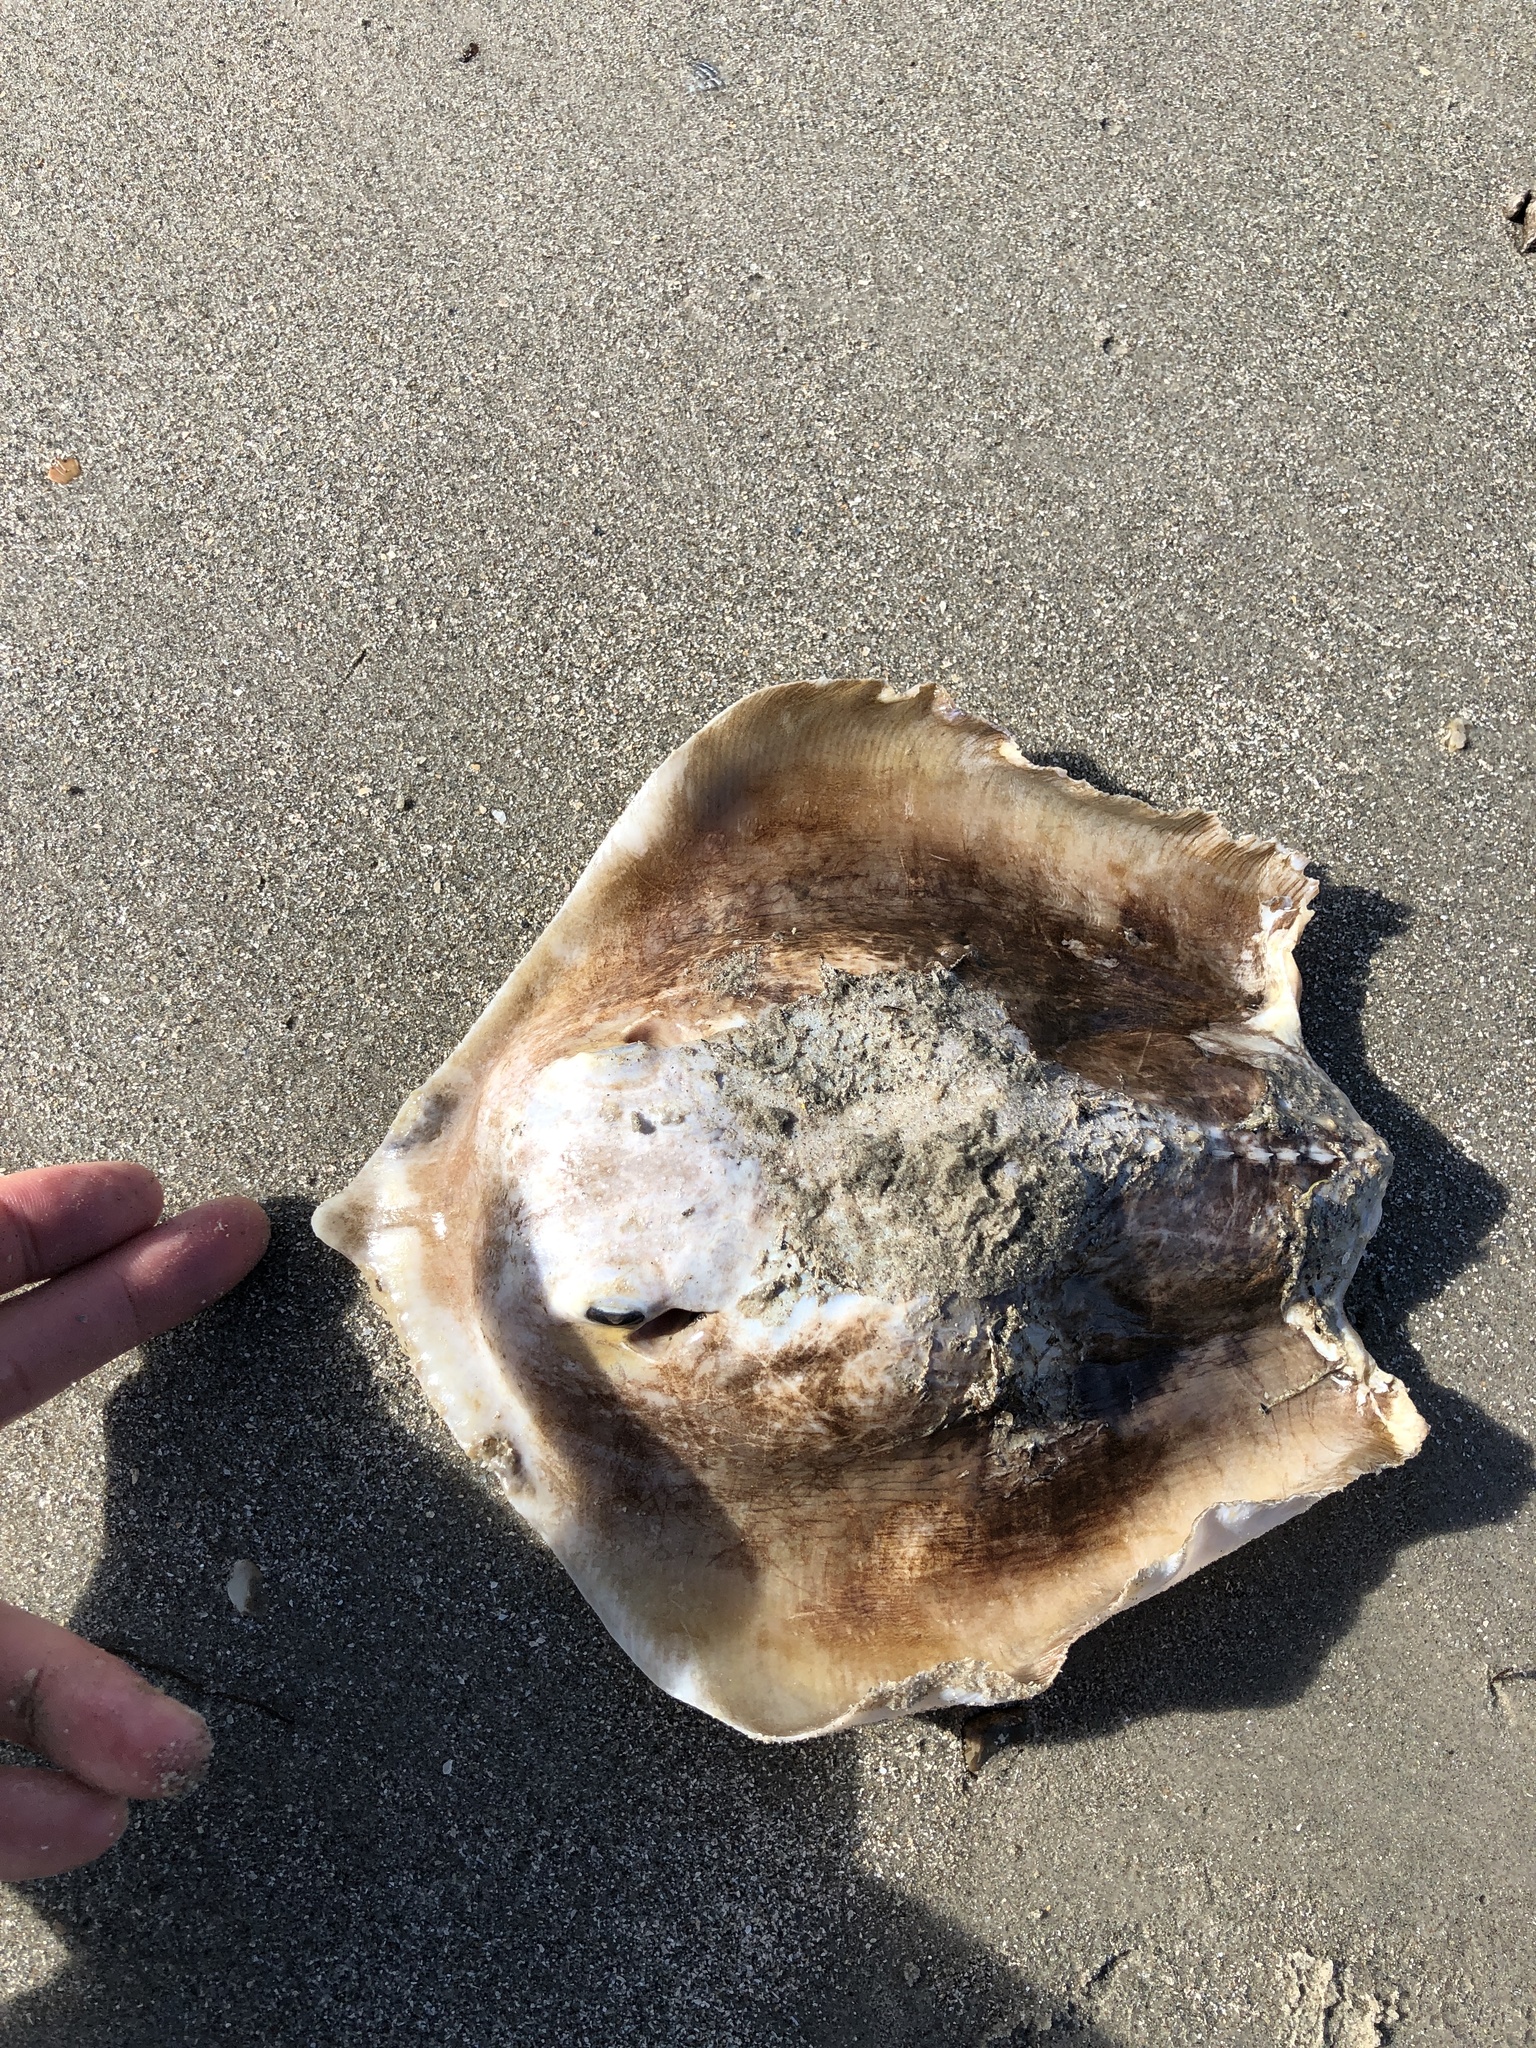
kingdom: Animalia
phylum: Chordata
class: Elasmobranchii
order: Myliobatiformes
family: Dasyatidae
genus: Hypanus
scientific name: Hypanus sabinus
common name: Atlantic stingray
